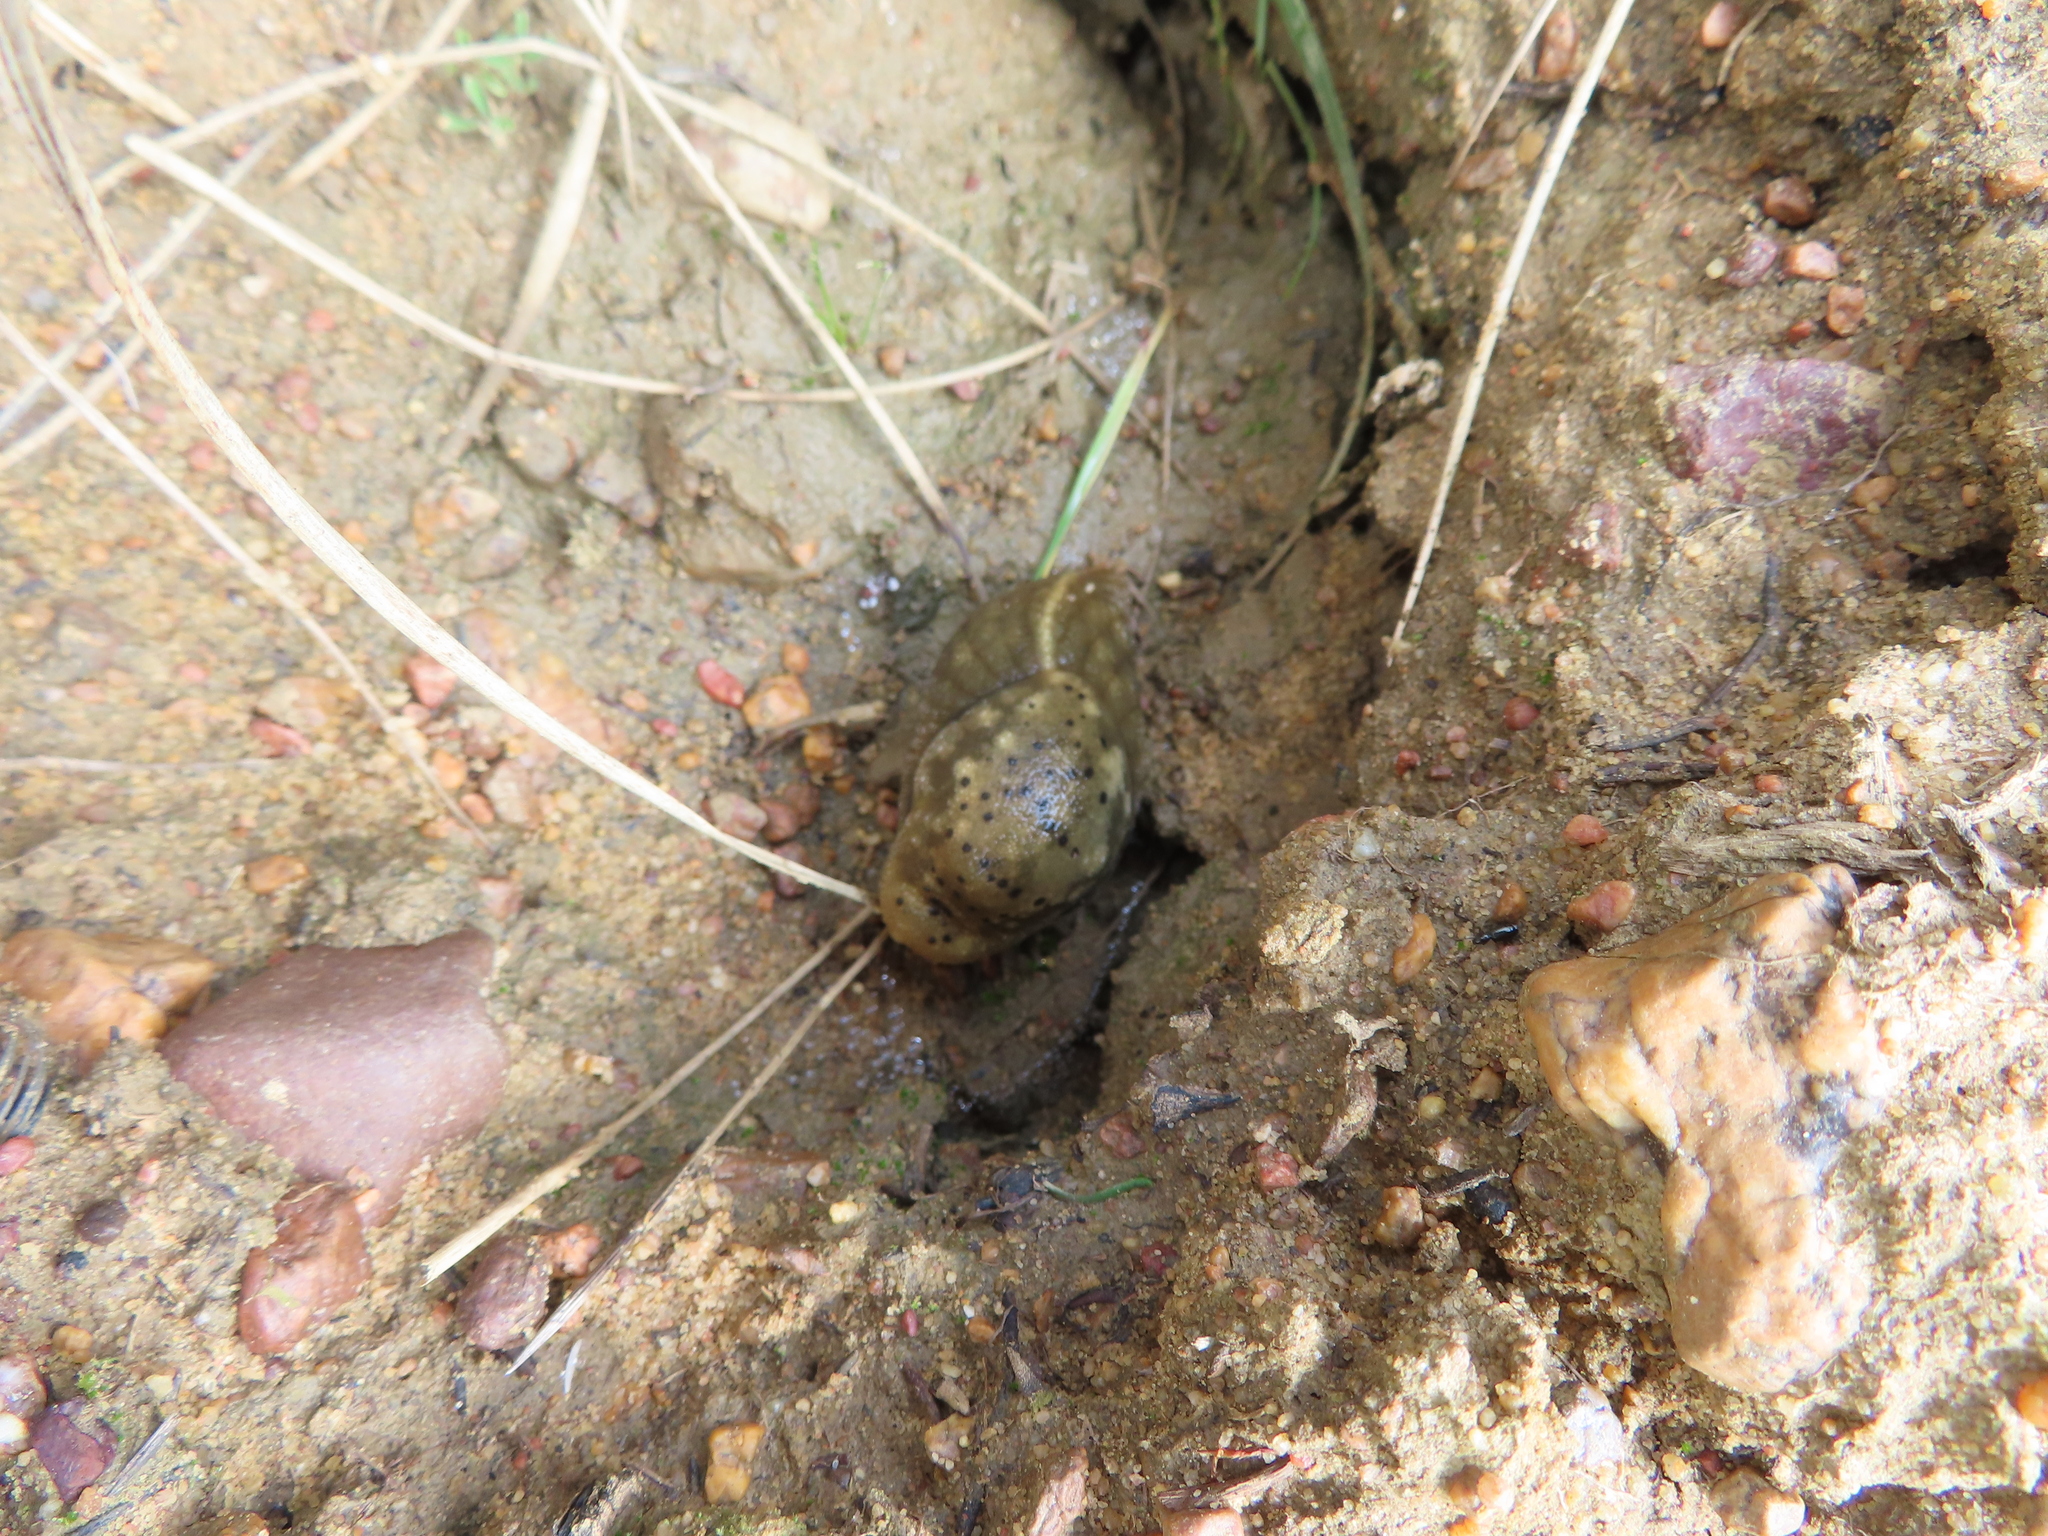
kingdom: Animalia
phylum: Mollusca
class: Gastropoda
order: Stylommatophora
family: Oopeltidae
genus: Oopelta
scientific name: Oopelta nigropunctata
